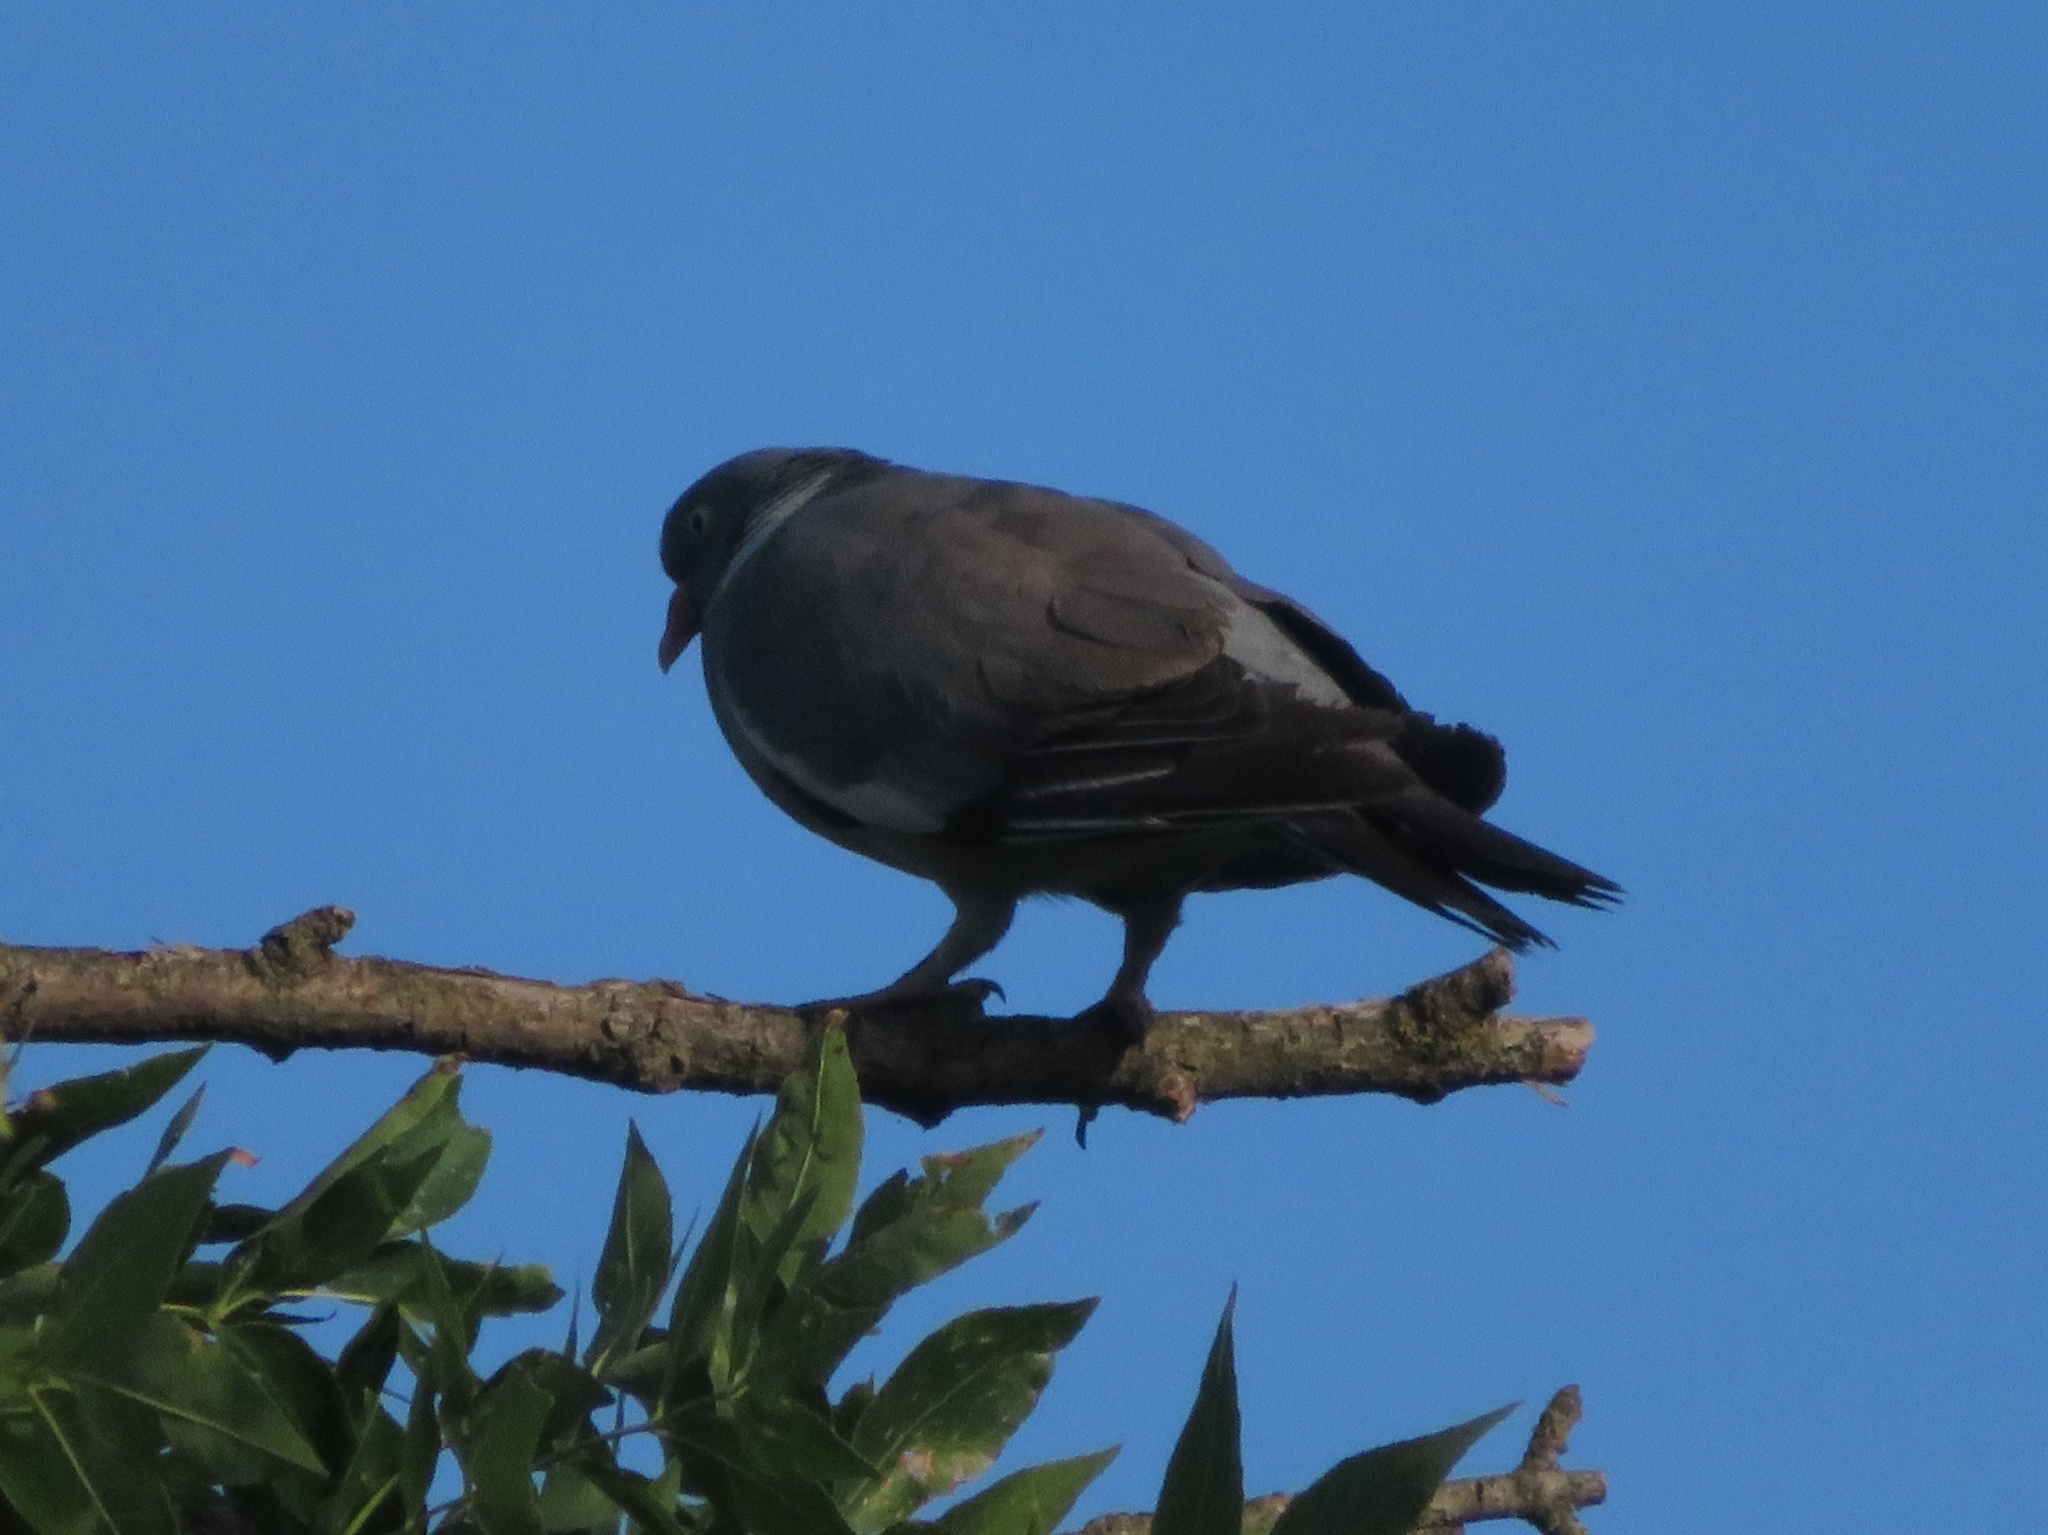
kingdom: Animalia
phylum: Chordata
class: Aves
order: Columbiformes
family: Columbidae
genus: Columba
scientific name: Columba palumbus
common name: Common wood pigeon
